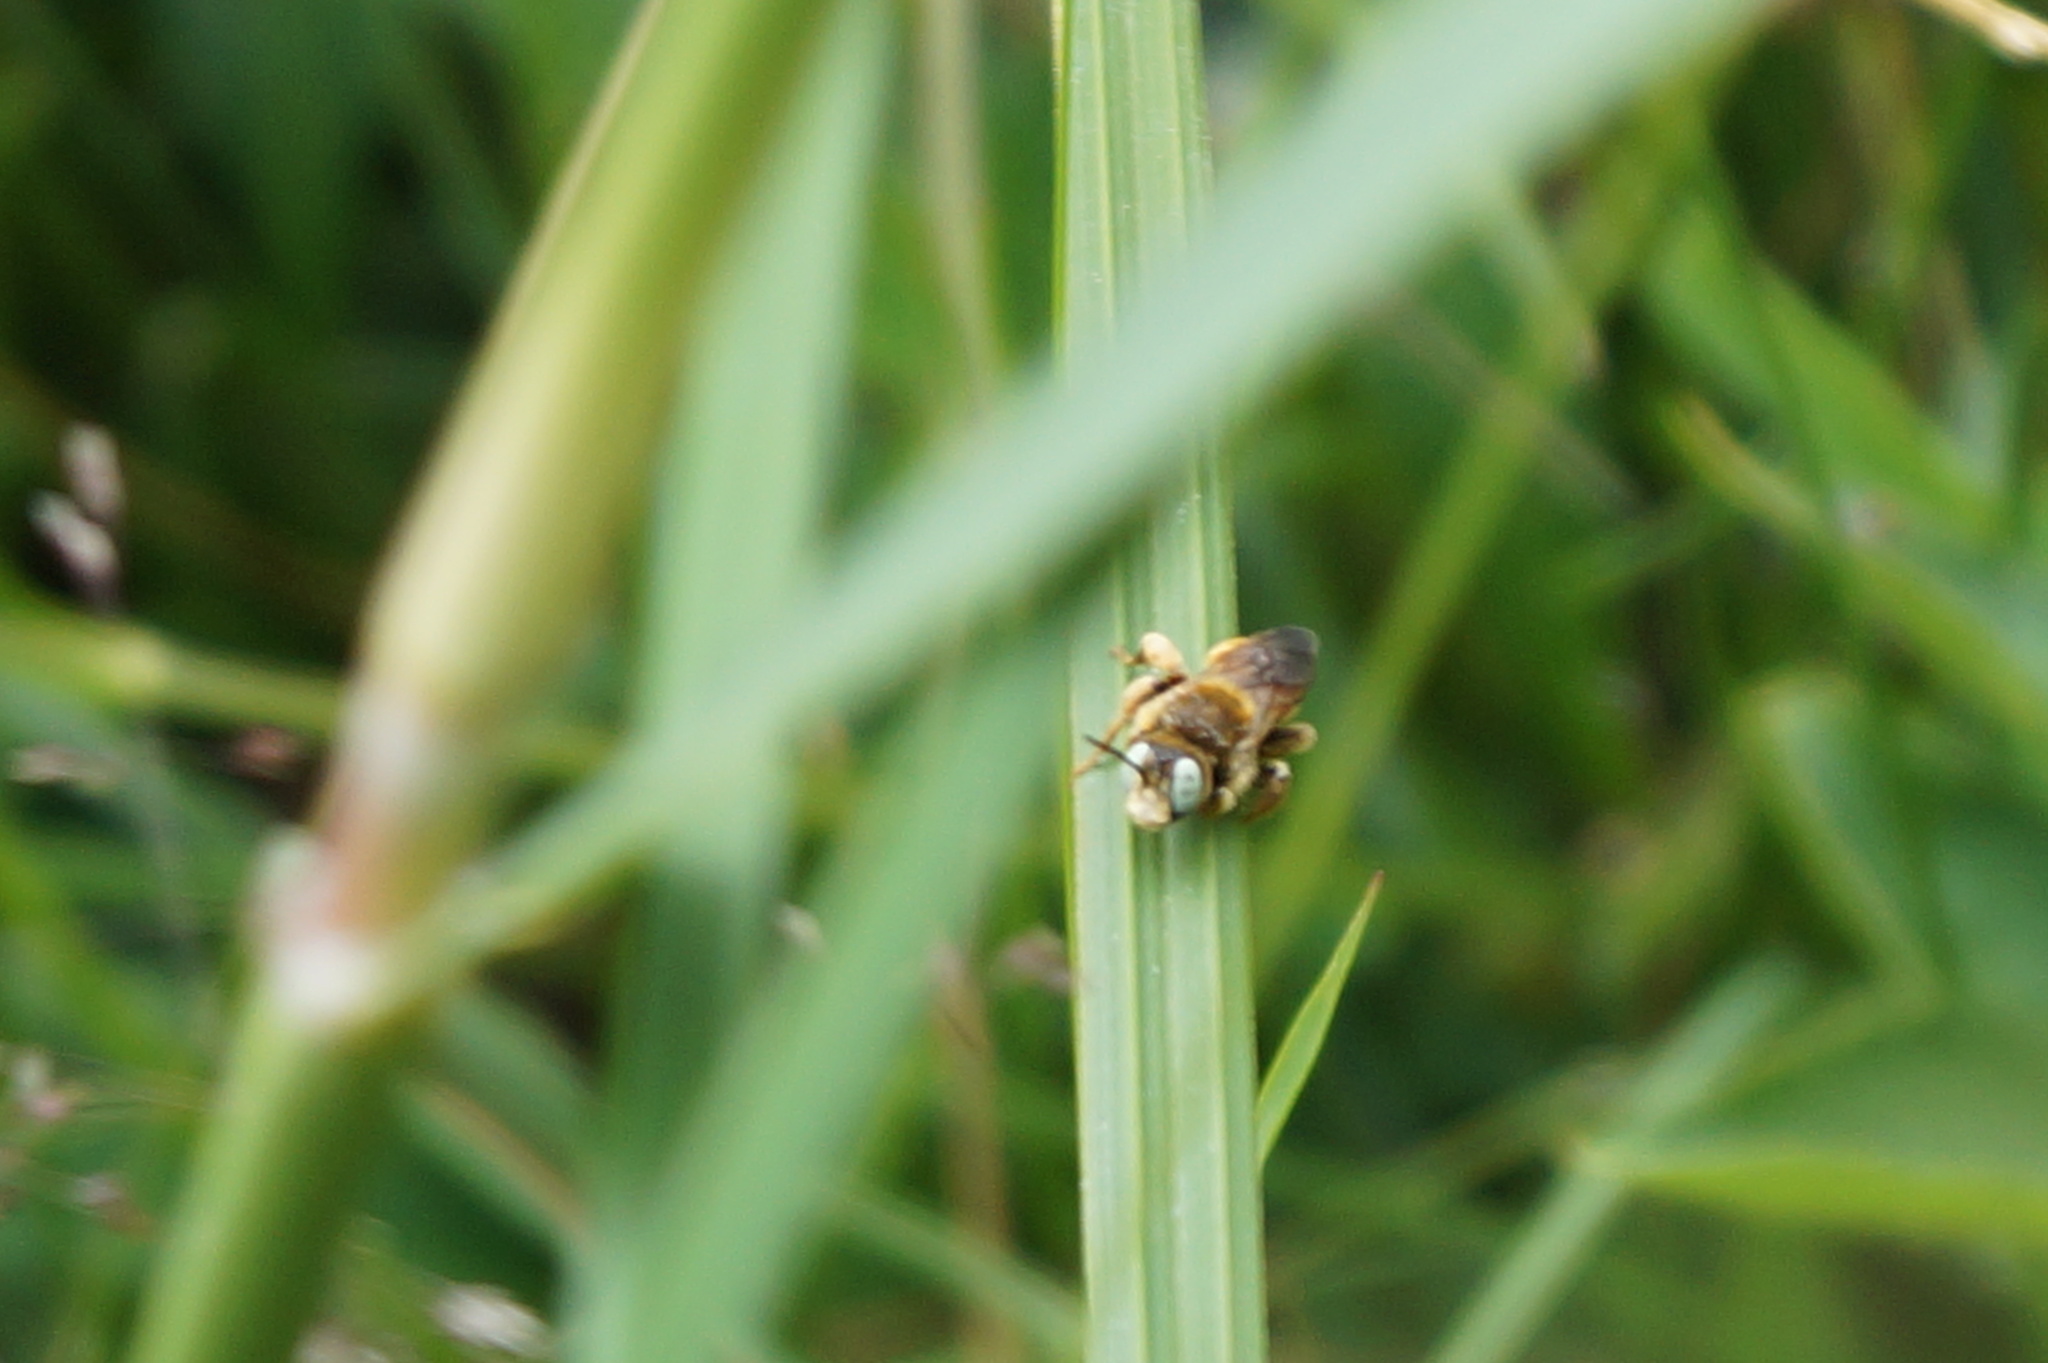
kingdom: Animalia
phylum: Arthropoda
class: Insecta
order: Hymenoptera
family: Apidae
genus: Epeoloides
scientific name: Epeoloides coecutiens
